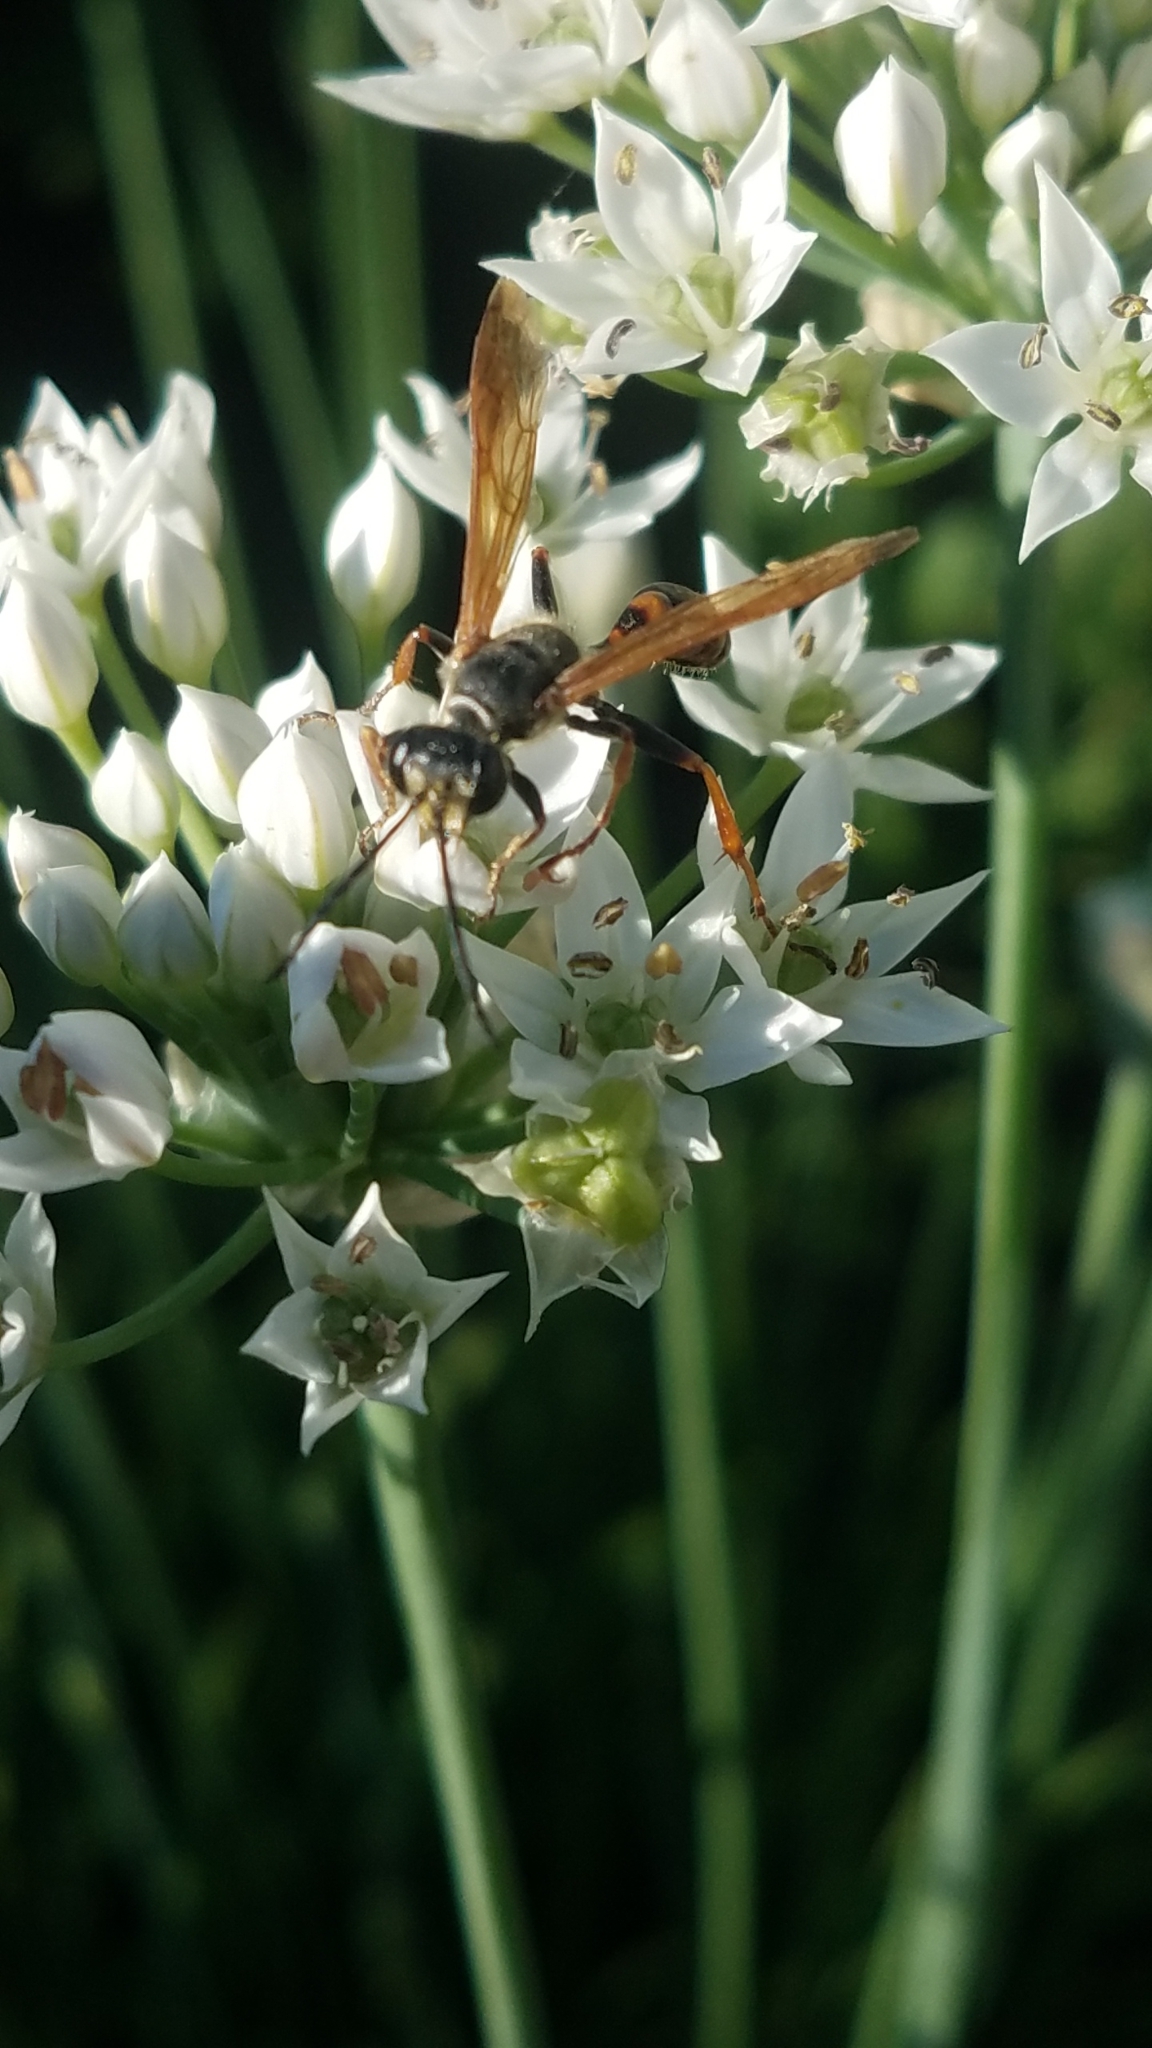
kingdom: Animalia
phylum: Arthropoda
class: Insecta
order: Hymenoptera
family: Sphecidae
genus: Isodontia
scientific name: Isodontia elegans
